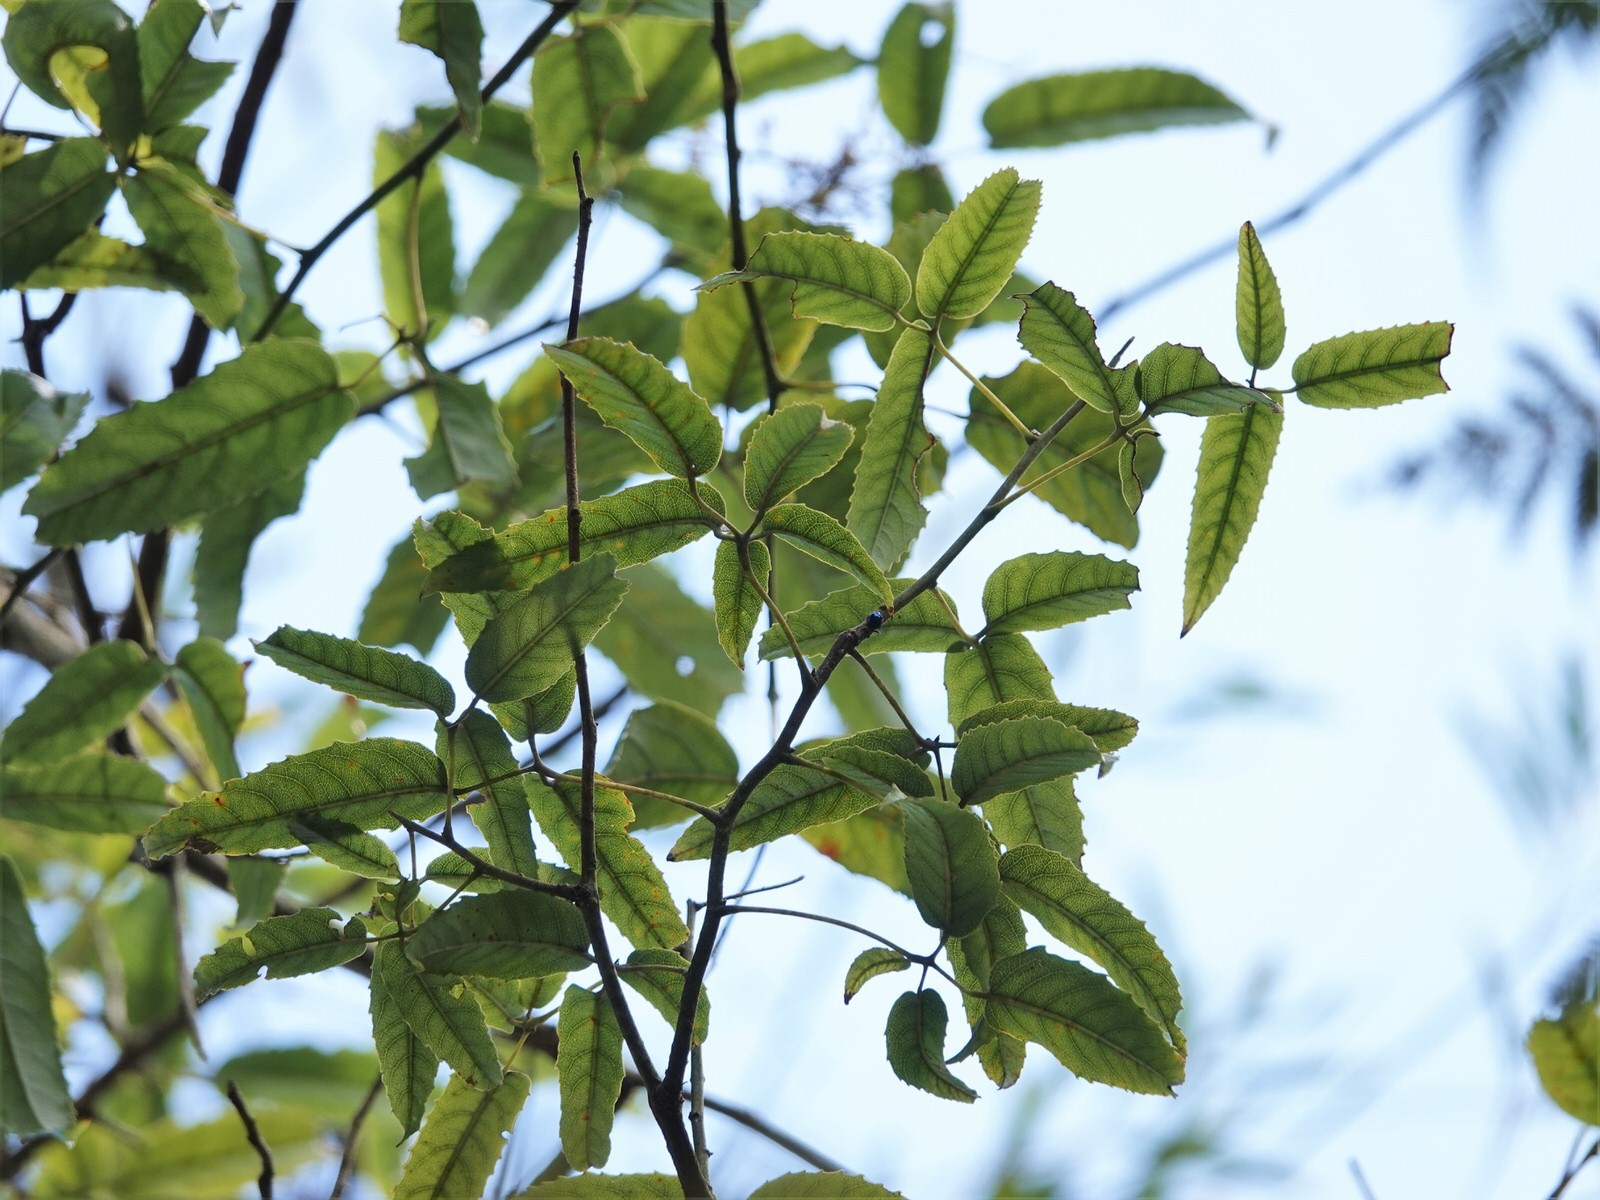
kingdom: Plantae
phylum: Tracheophyta
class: Magnoliopsida
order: Rosales
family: Rosaceae
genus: Rubus
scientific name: Rubus cissoides
